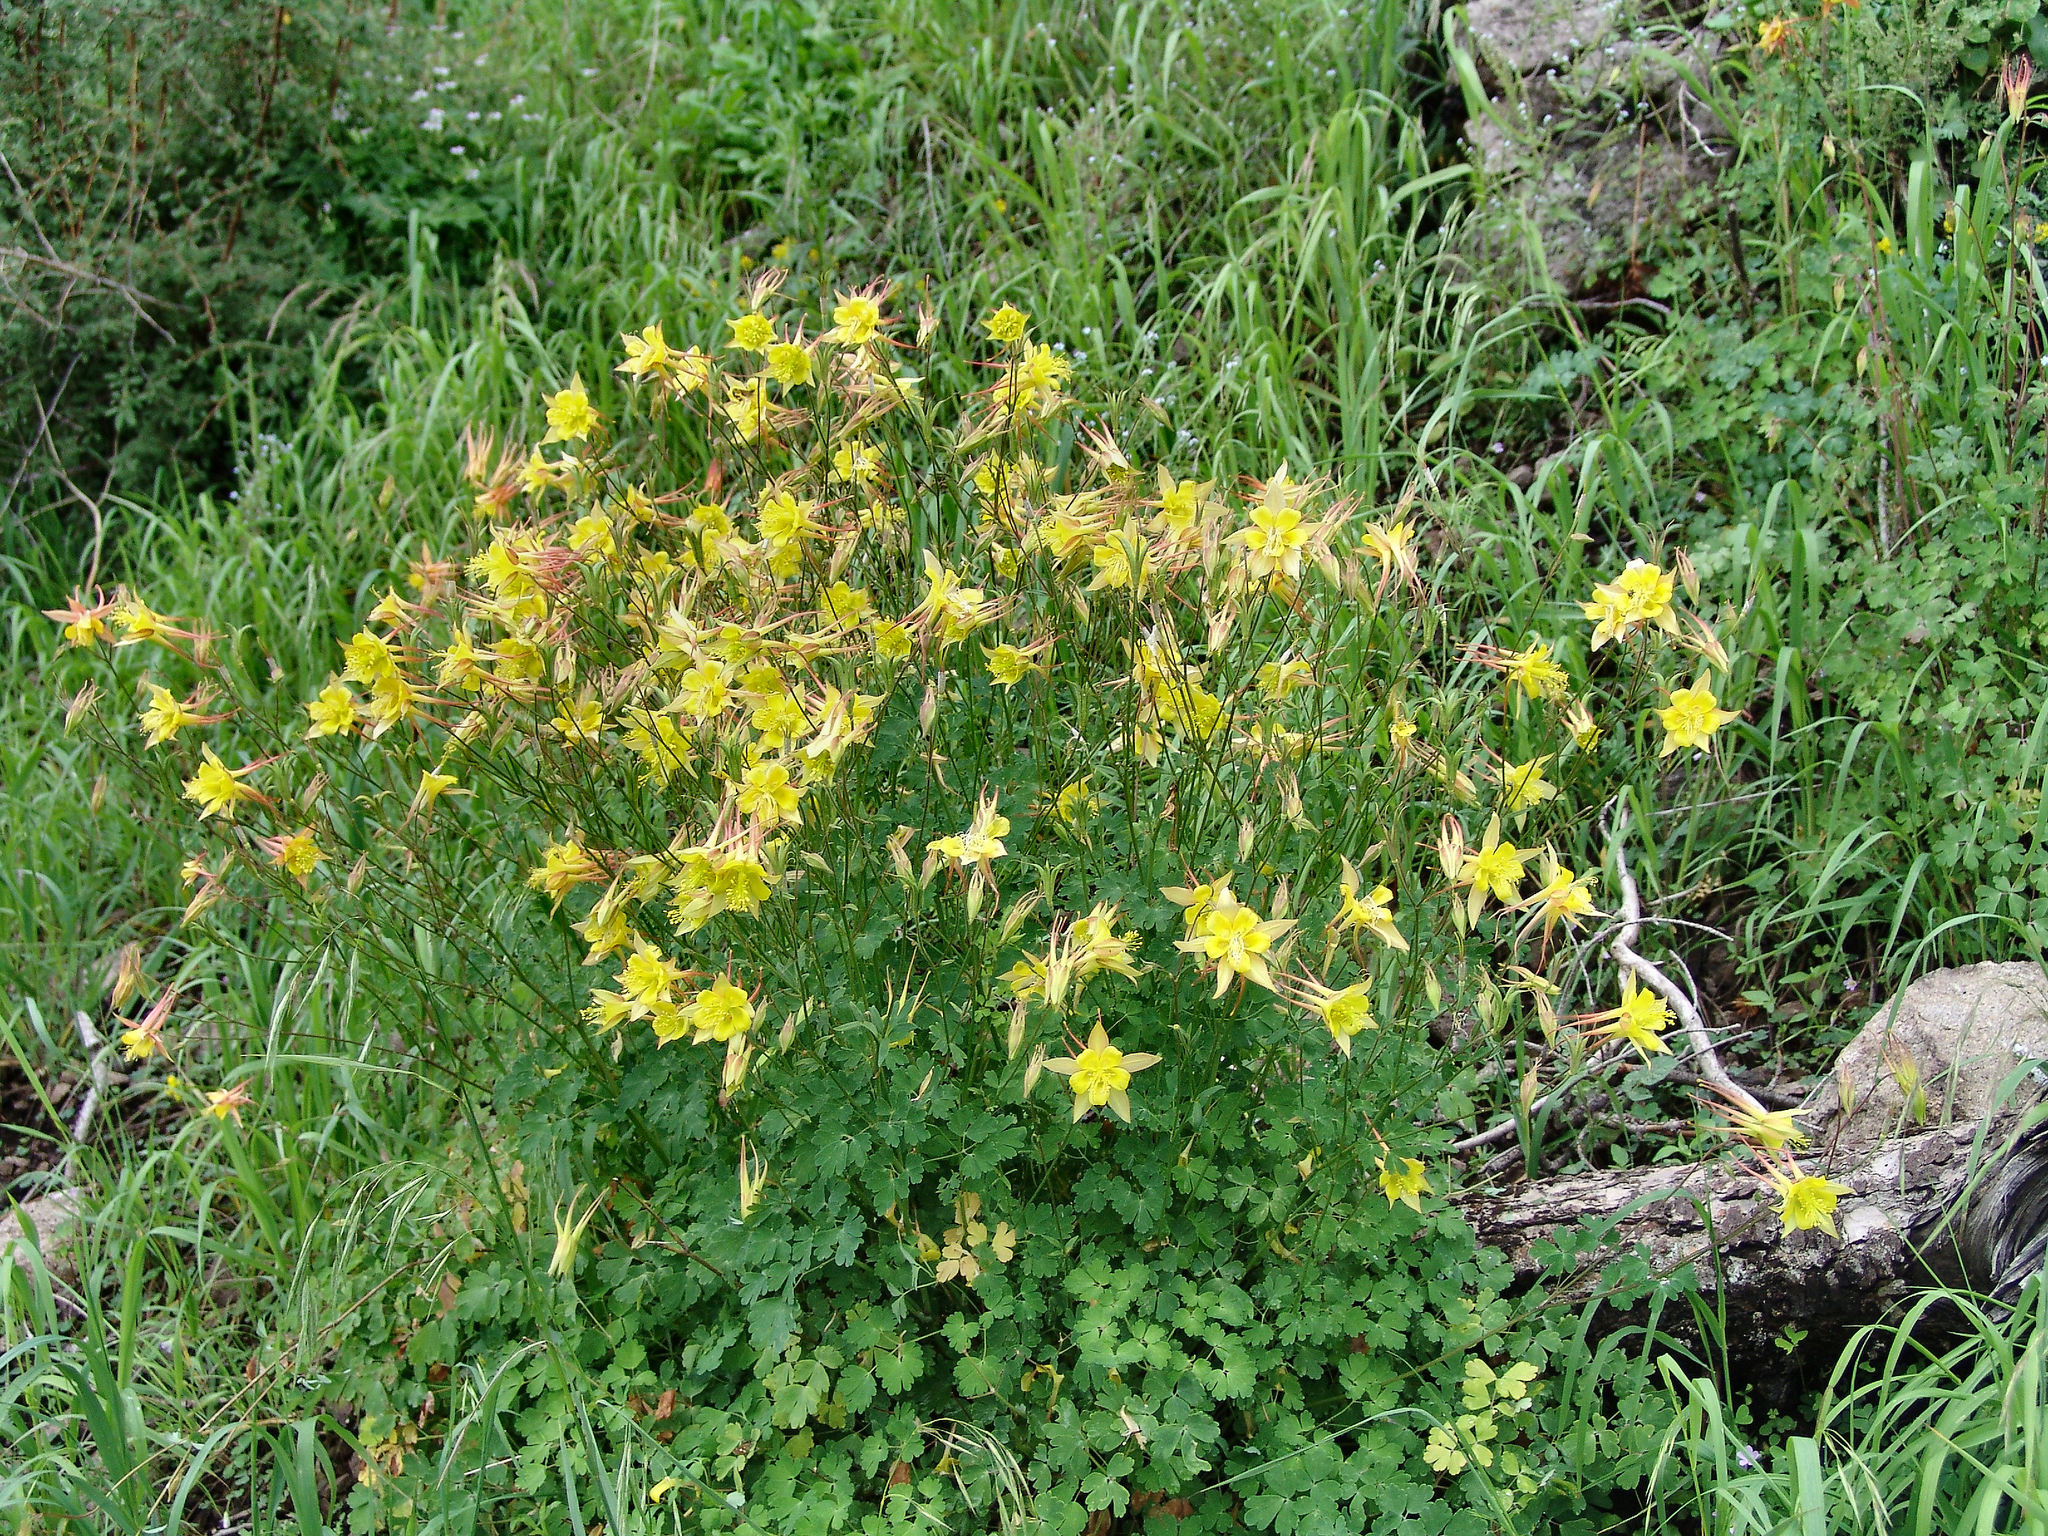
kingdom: Plantae
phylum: Tracheophyta
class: Magnoliopsida
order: Ranunculales
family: Ranunculaceae
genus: Aquilegia
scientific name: Aquilegia chrysantha
